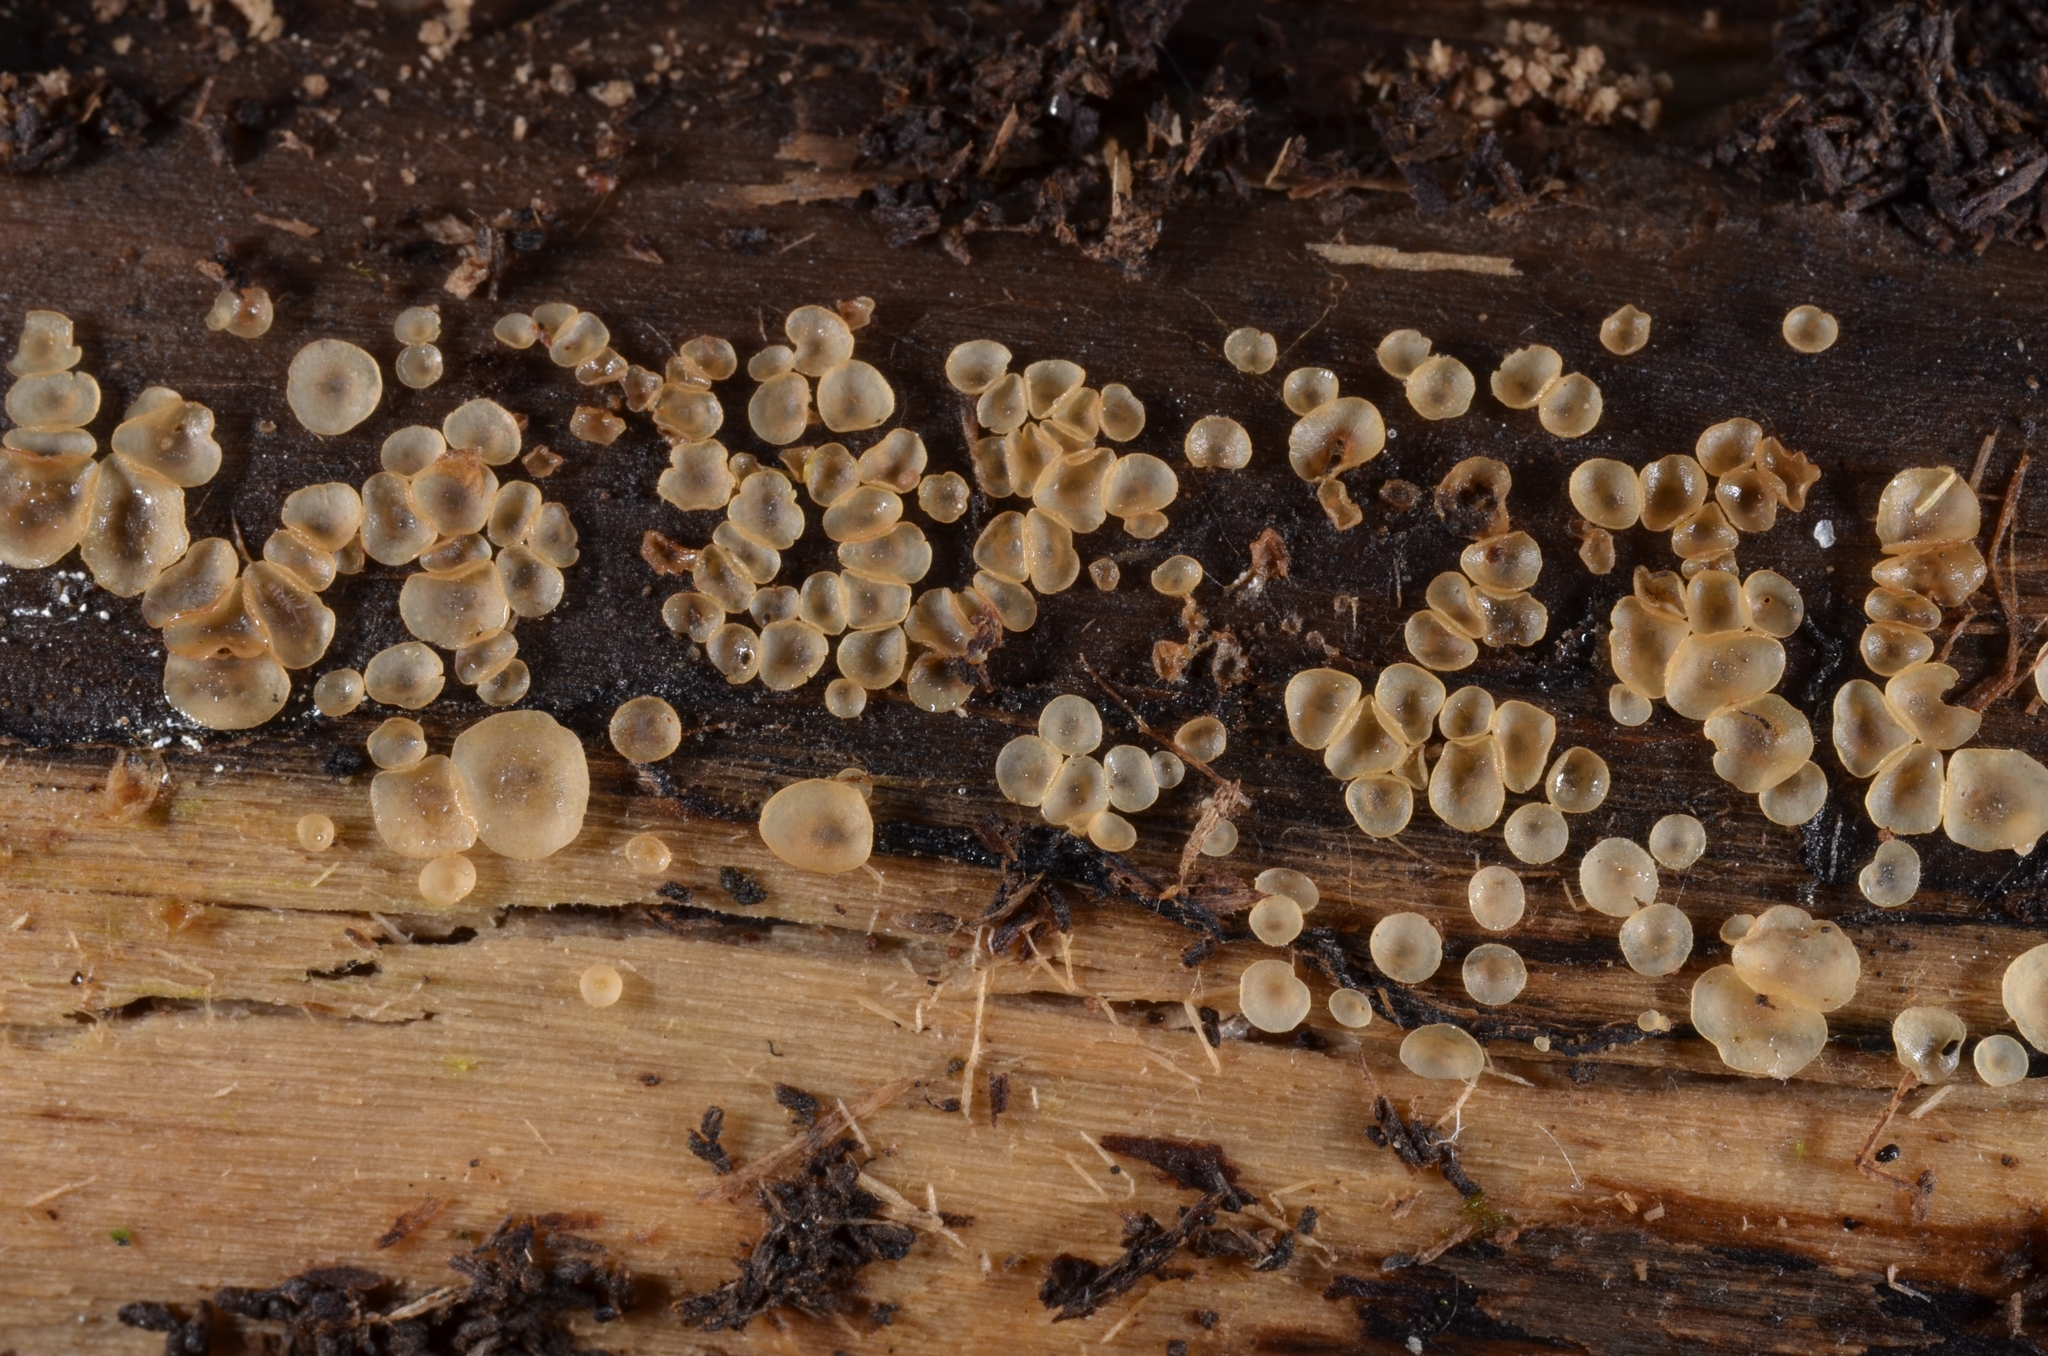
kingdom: Fungi
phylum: Ascomycota
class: Orbiliomycetes
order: Orbiliales
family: Orbiliaceae
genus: Hyalorbilia
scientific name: Hyalorbilia inflatula
